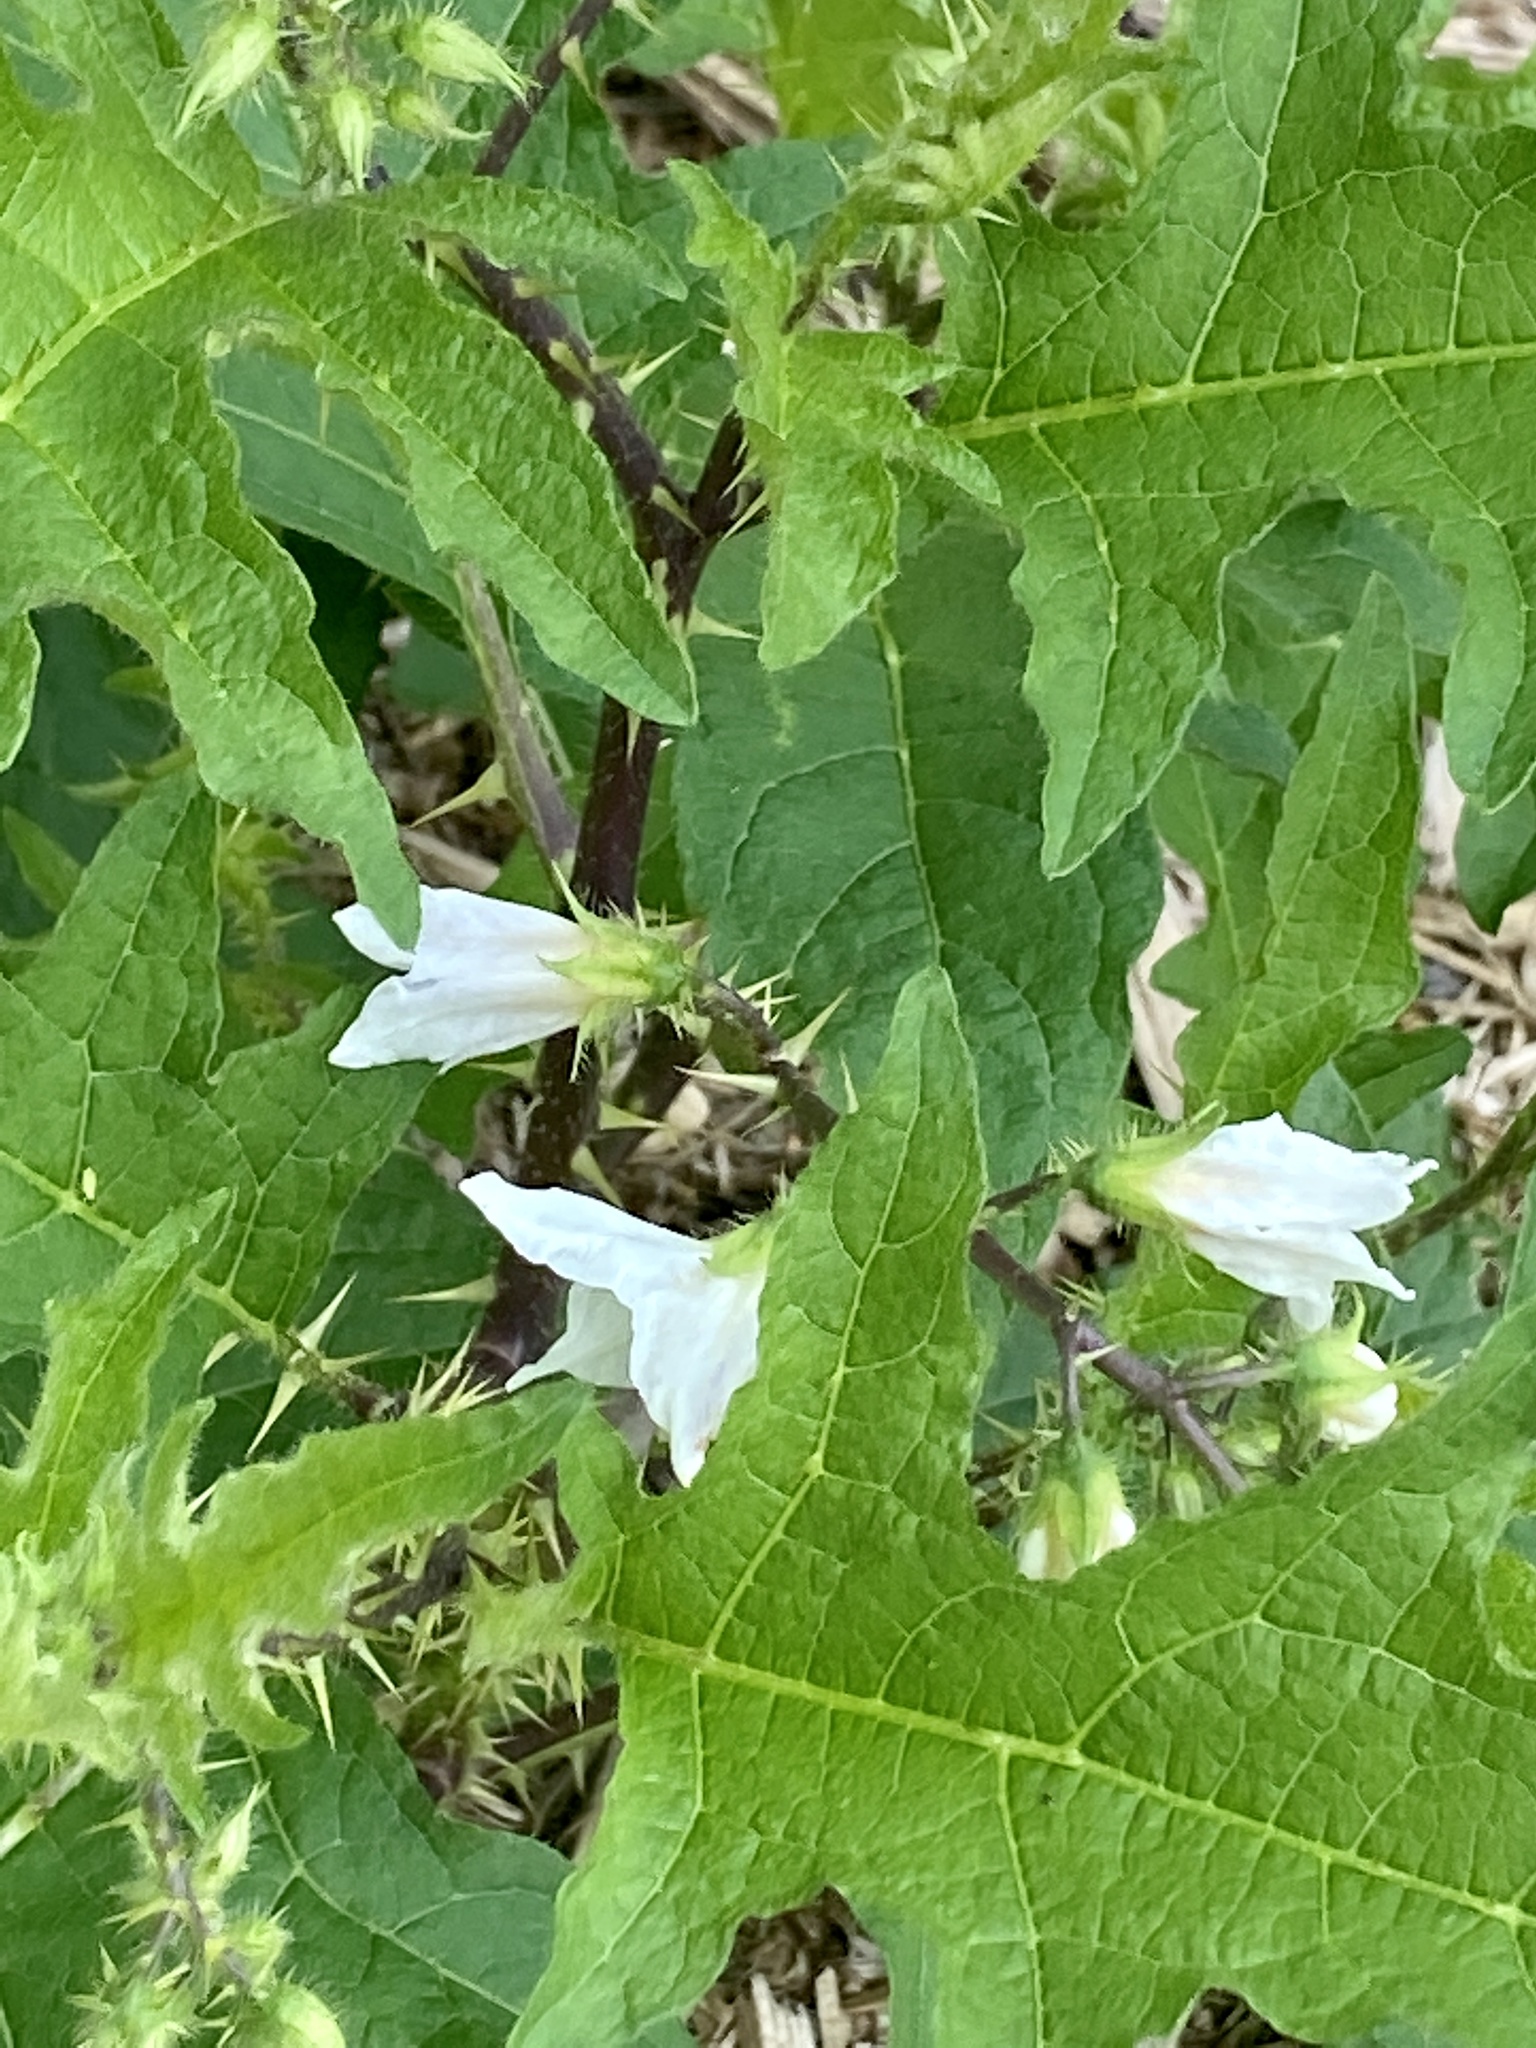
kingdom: Plantae
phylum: Tracheophyta
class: Magnoliopsida
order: Solanales
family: Solanaceae
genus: Solanum
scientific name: Solanum carolinense
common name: Horse-nettle
